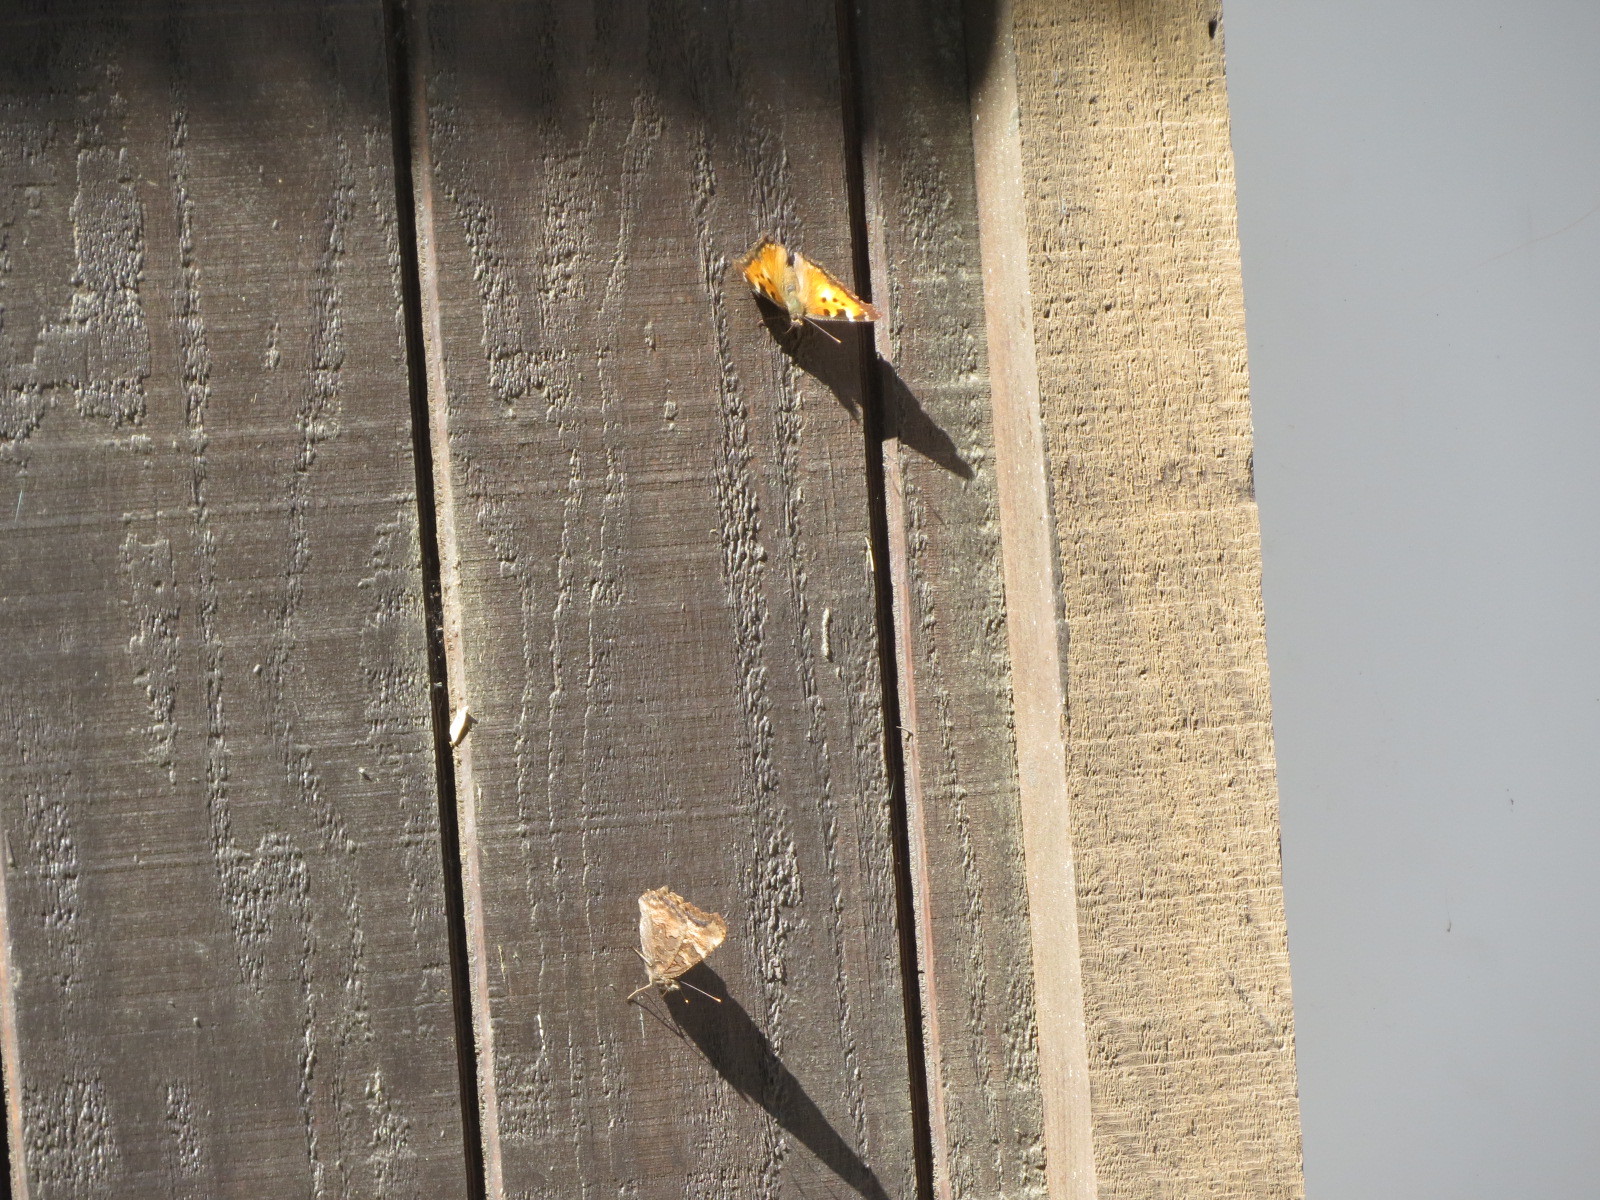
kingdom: Animalia
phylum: Arthropoda
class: Insecta
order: Lepidoptera
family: Nymphalidae
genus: Nymphalis
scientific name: Nymphalis californica
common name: California tortoiseshell
